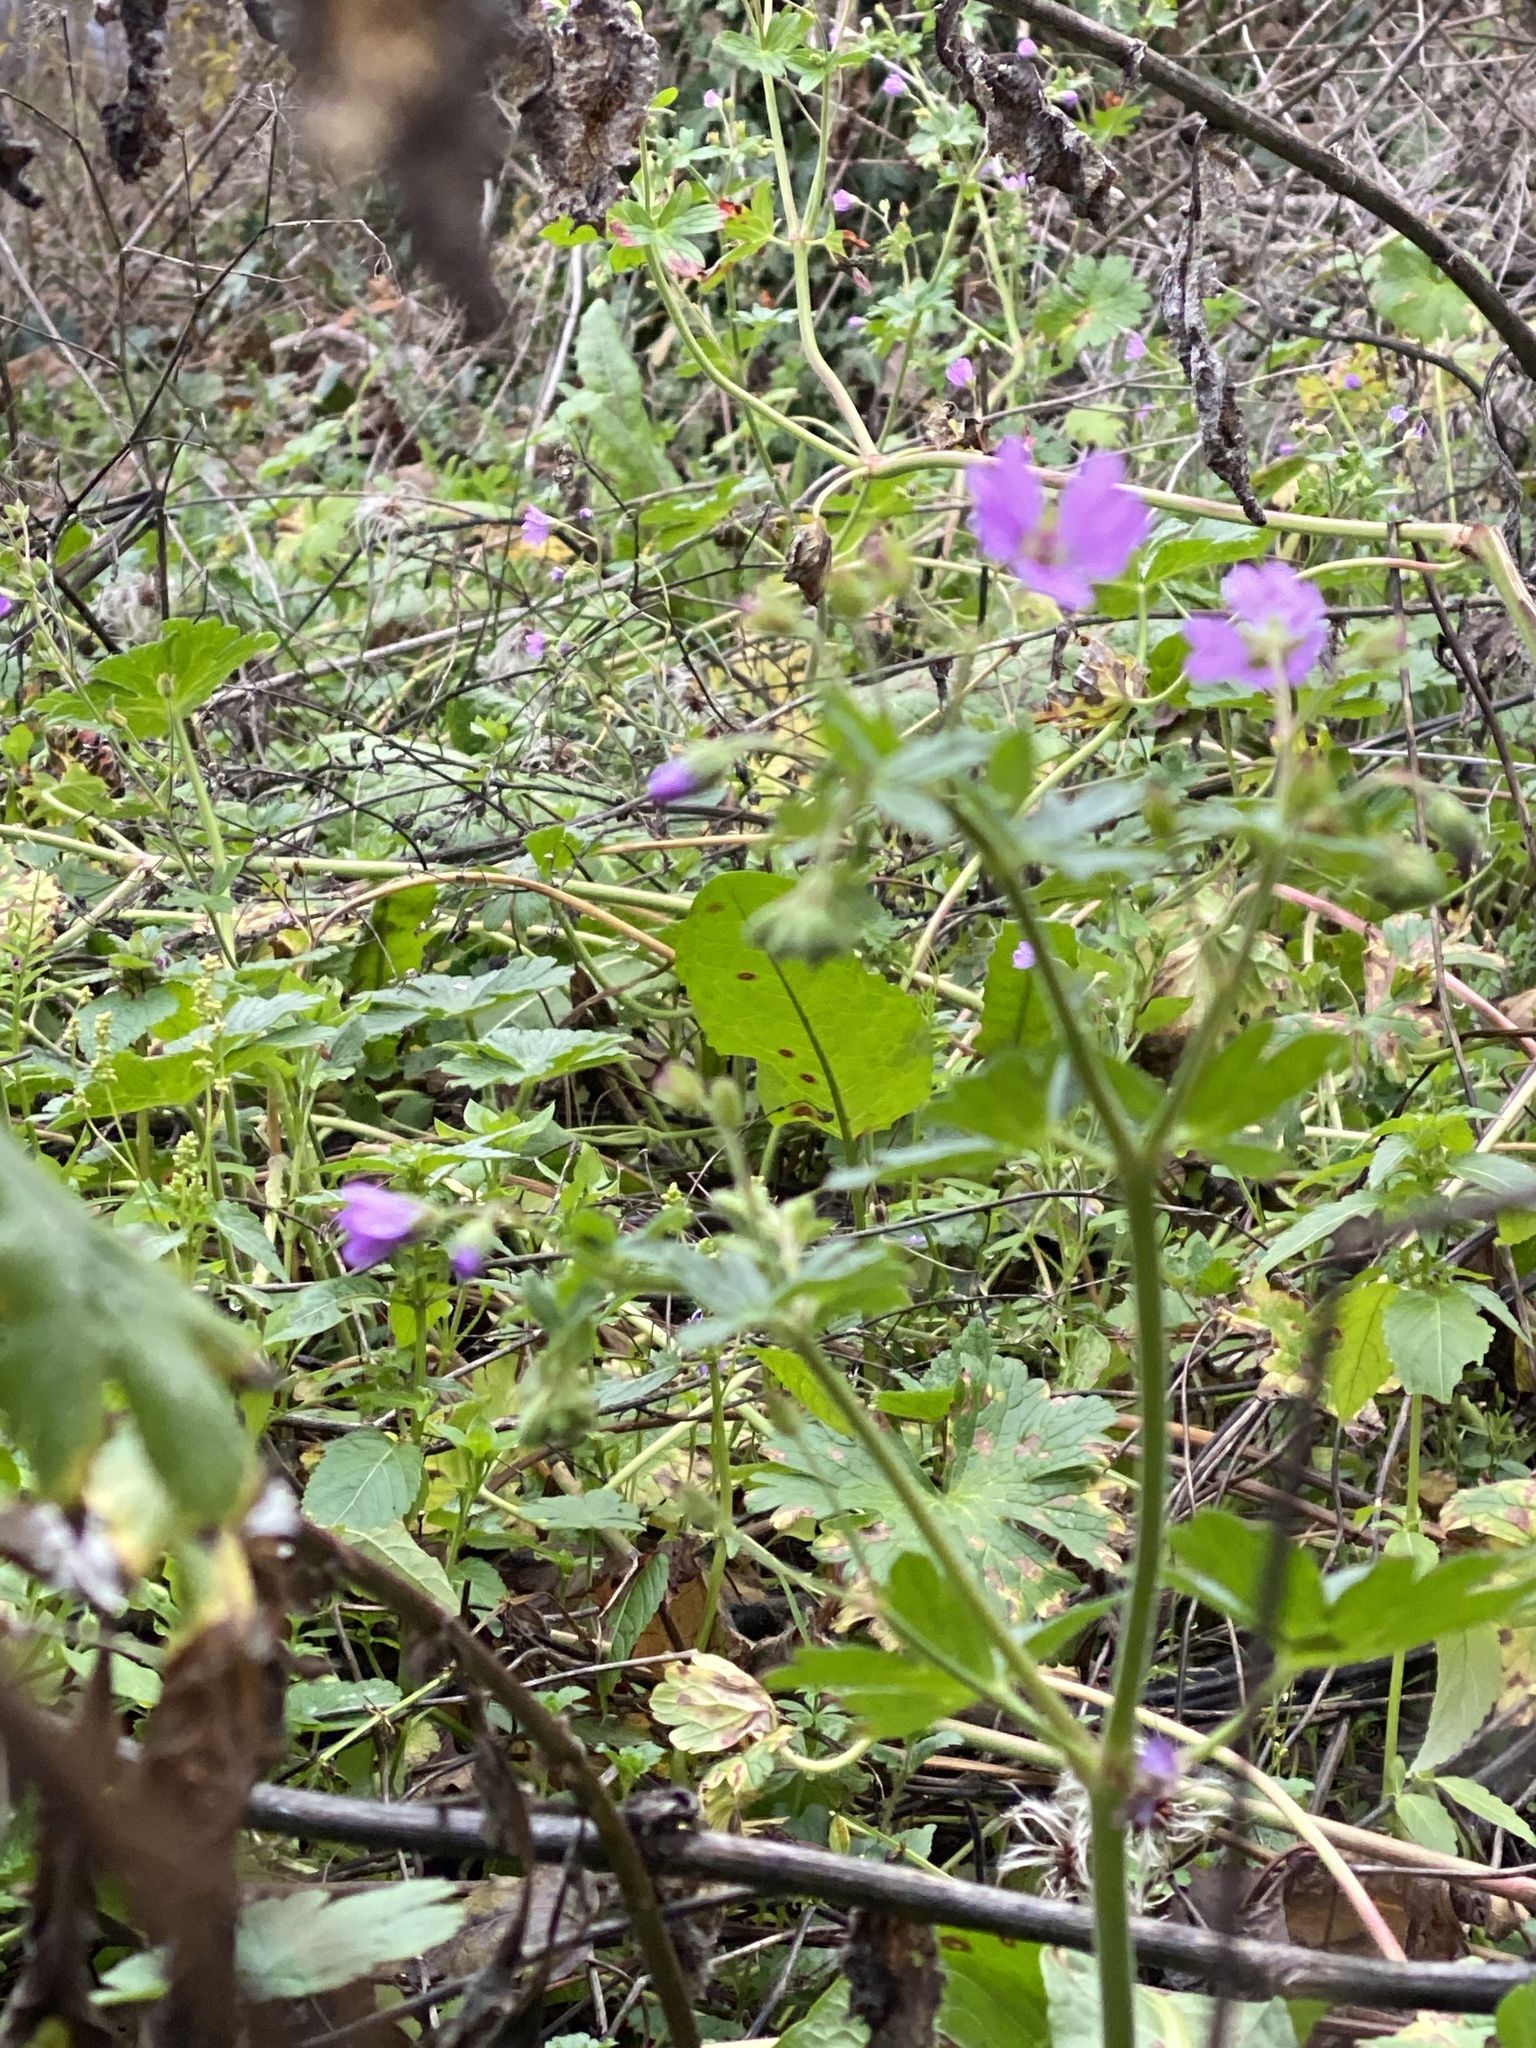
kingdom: Plantae
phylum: Tracheophyta
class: Magnoliopsida
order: Geraniales
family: Geraniaceae
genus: Geranium
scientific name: Geranium pyrenaicum
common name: Hedgerow crane's-bill
